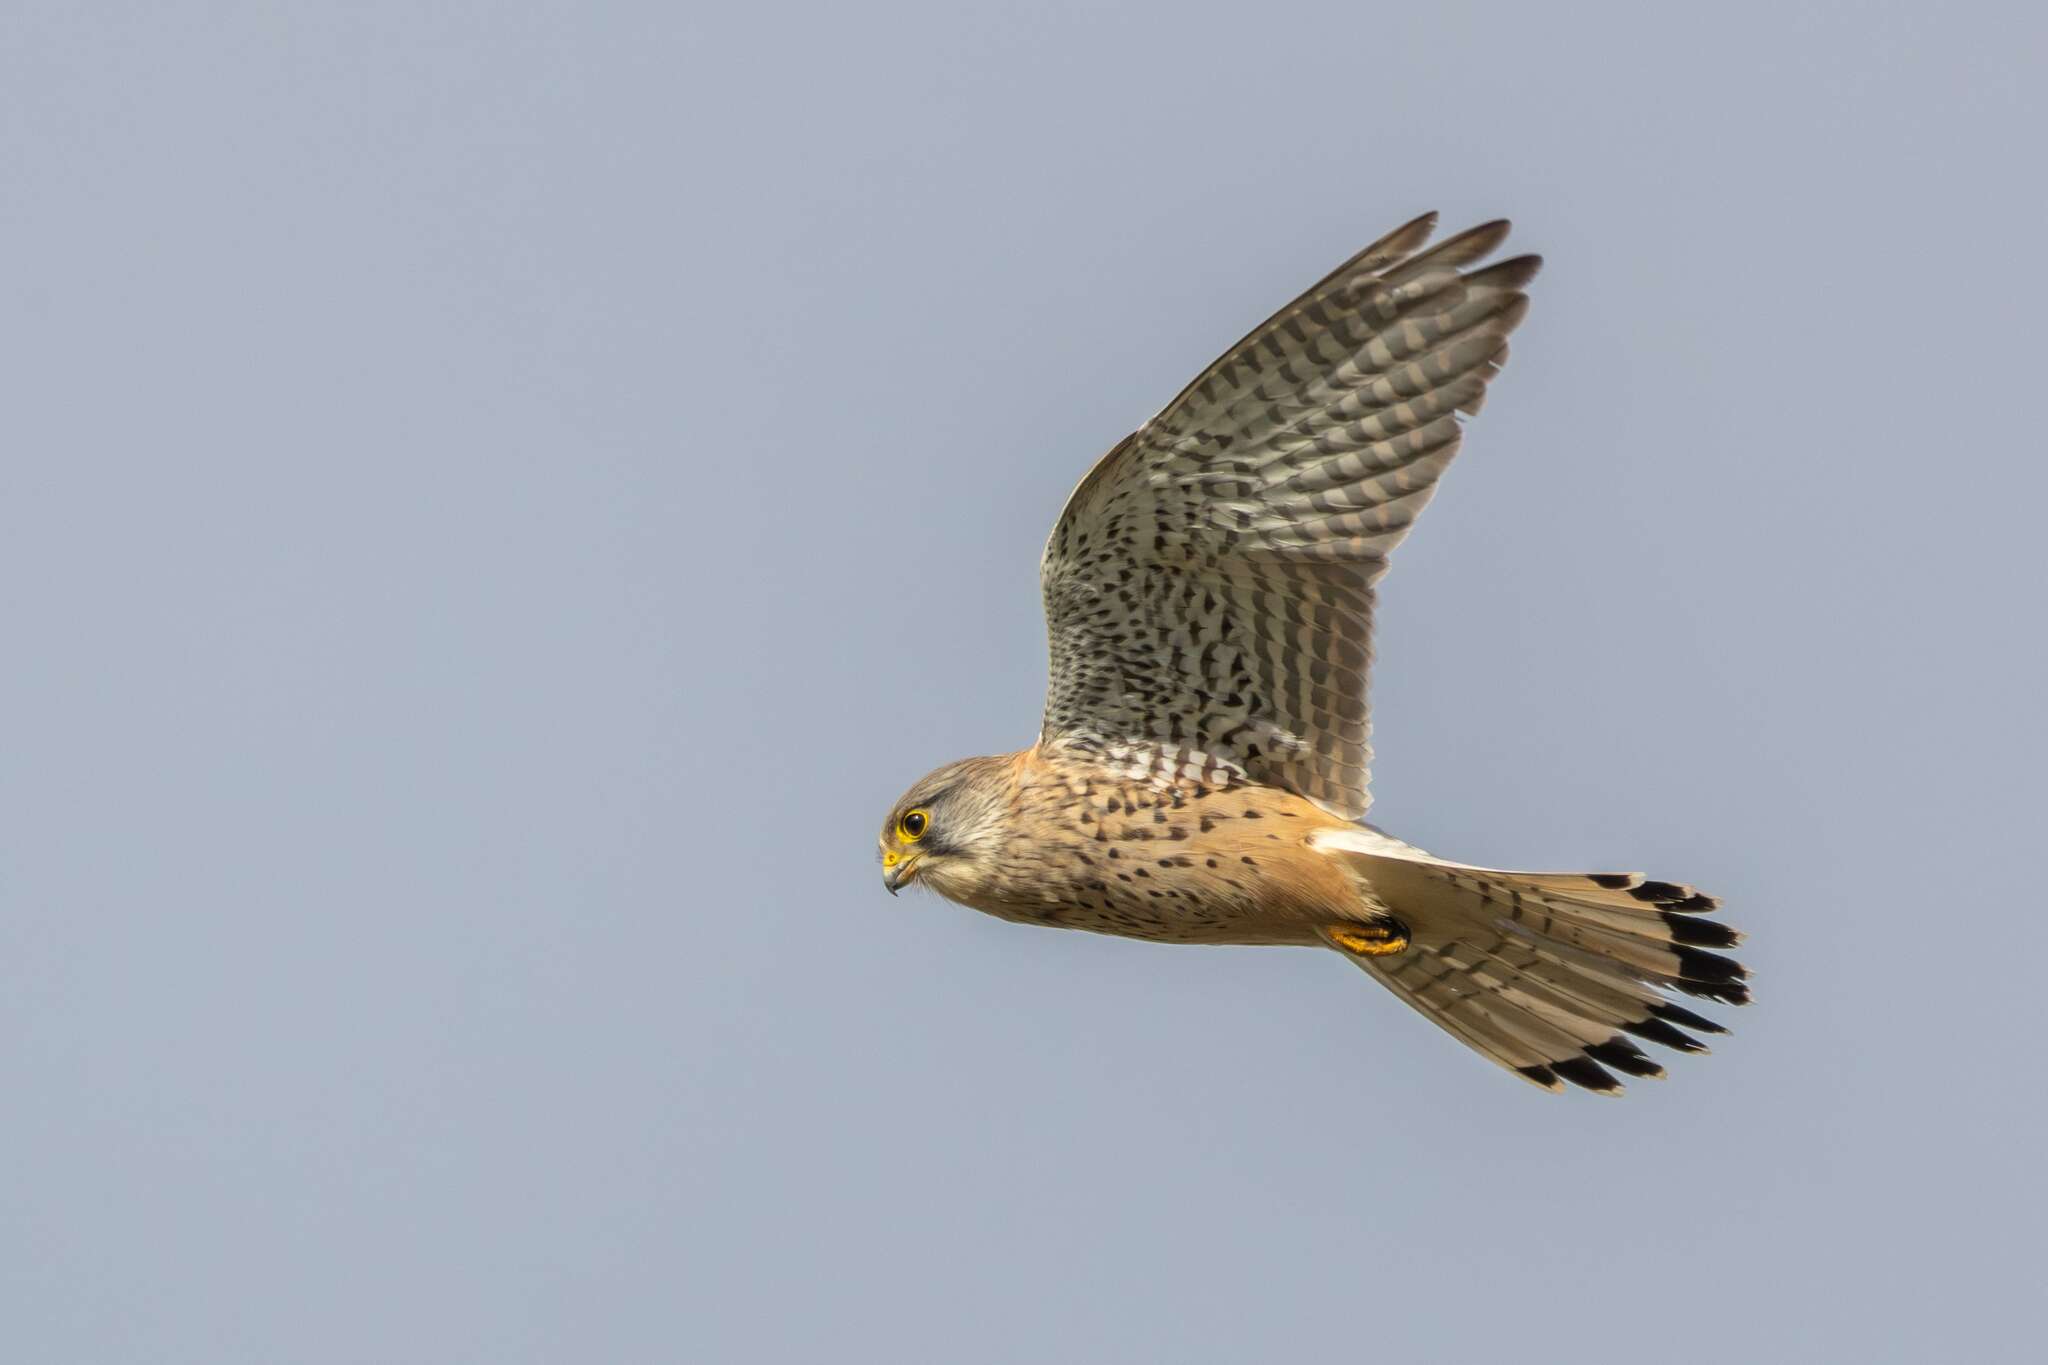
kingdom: Animalia
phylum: Chordata
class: Aves
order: Falconiformes
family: Falconidae
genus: Falco
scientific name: Falco tinnunculus
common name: Common kestrel
